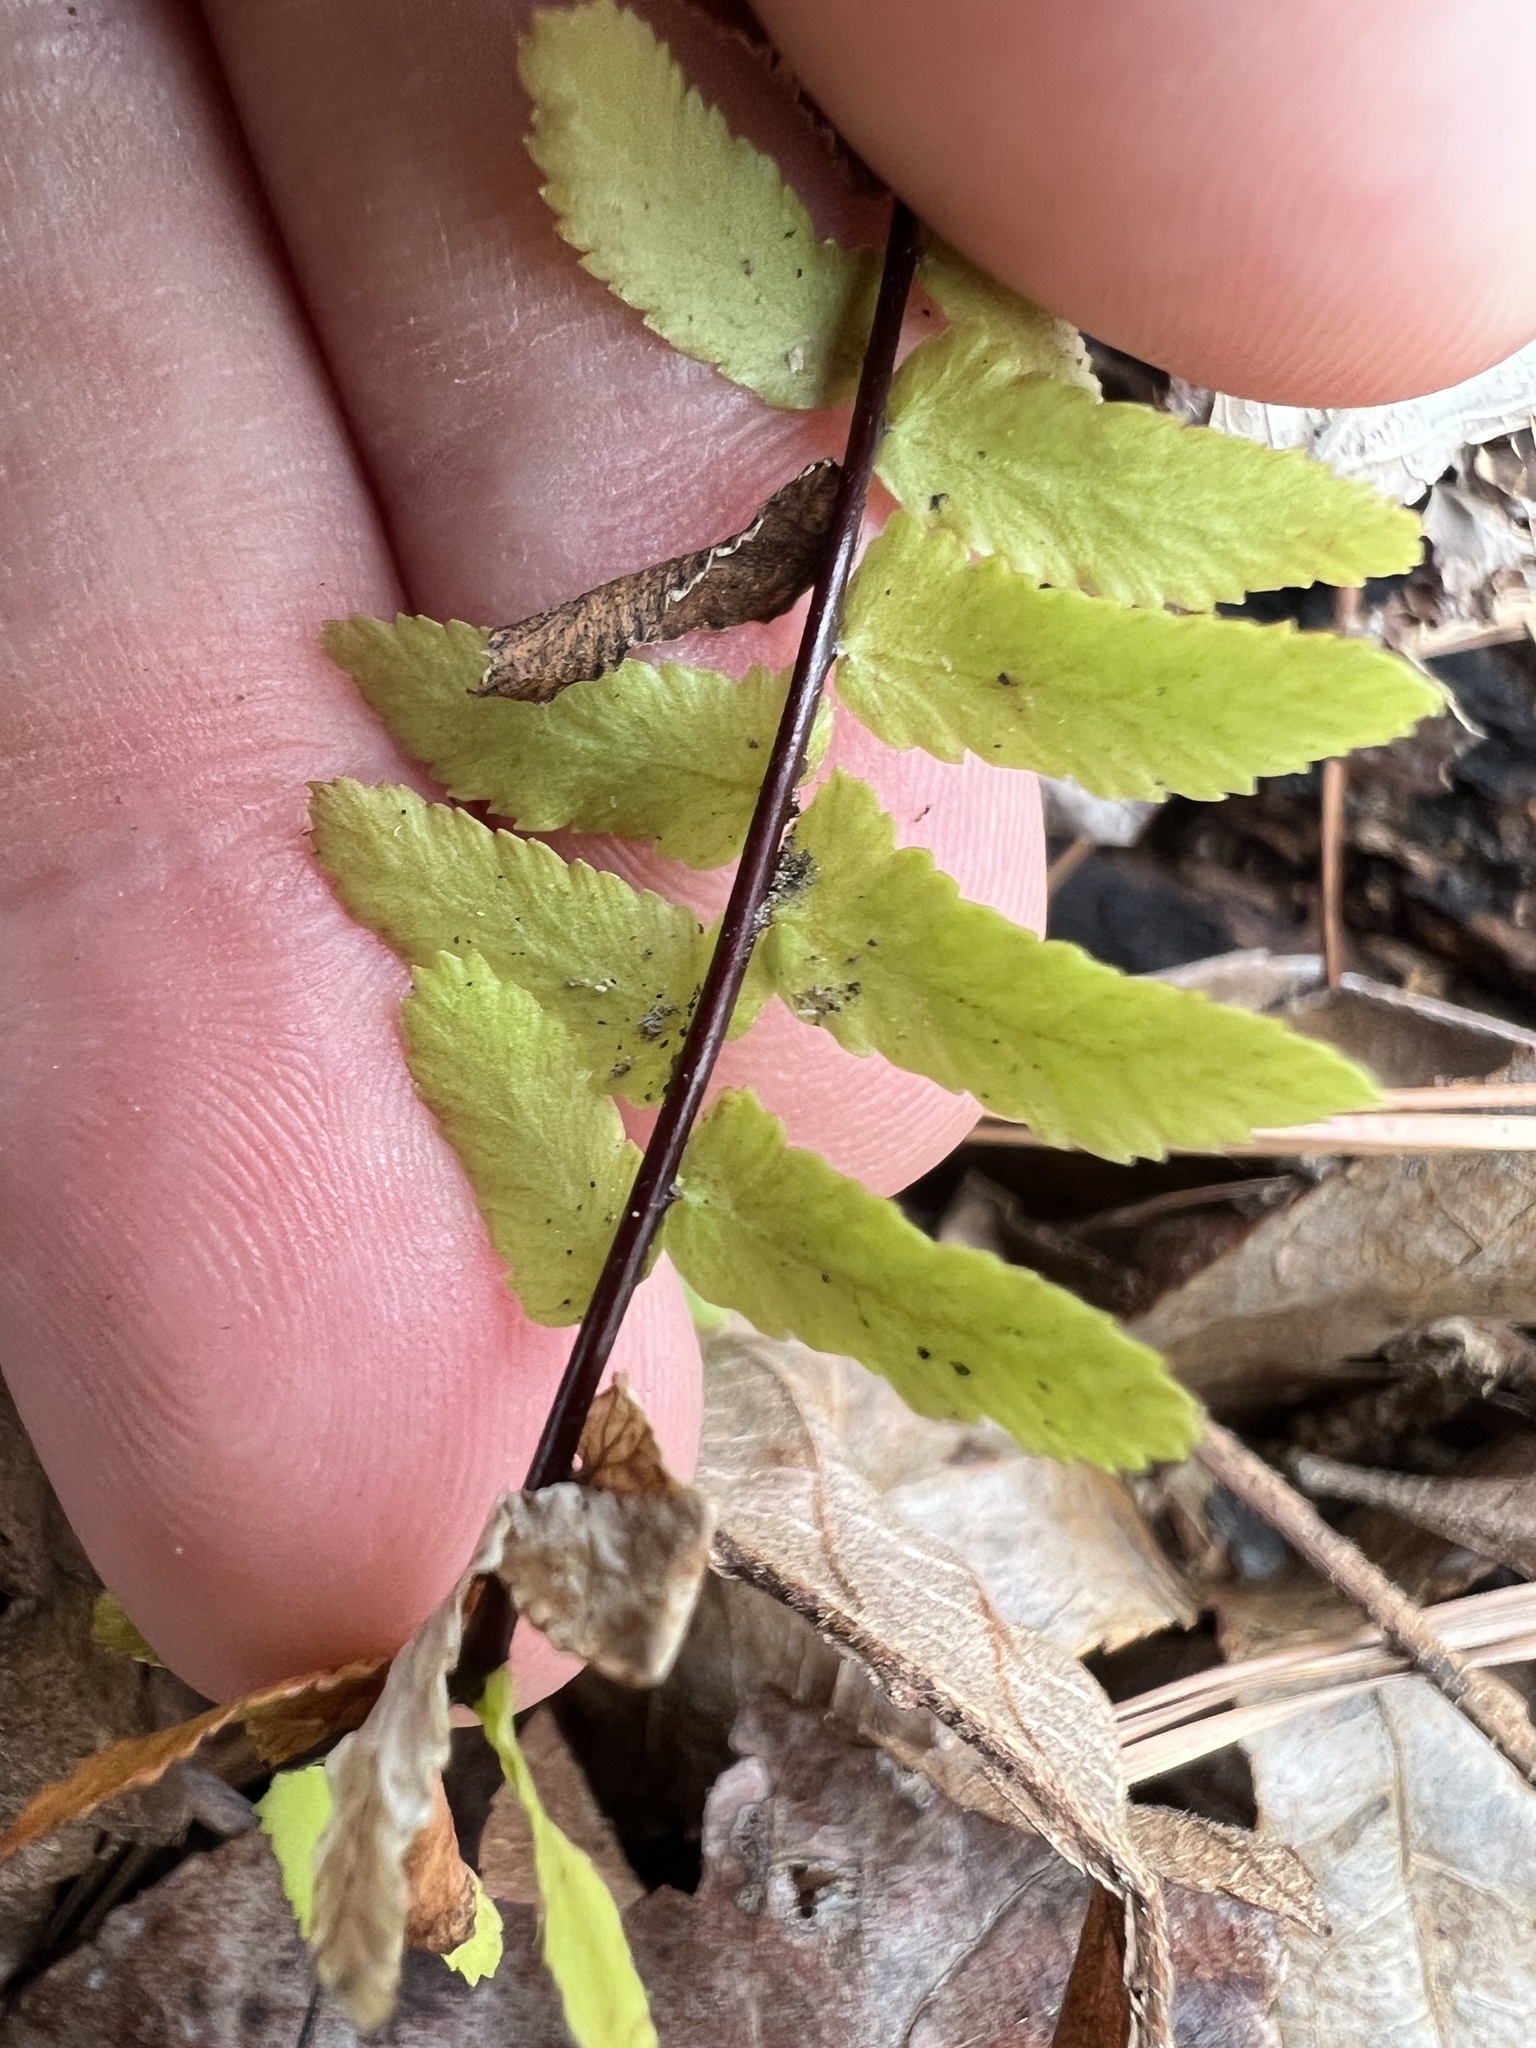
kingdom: Plantae
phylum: Tracheophyta
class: Polypodiopsida
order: Polypodiales
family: Aspleniaceae
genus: Asplenium
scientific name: Asplenium platyneuron
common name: Ebony spleenwort
